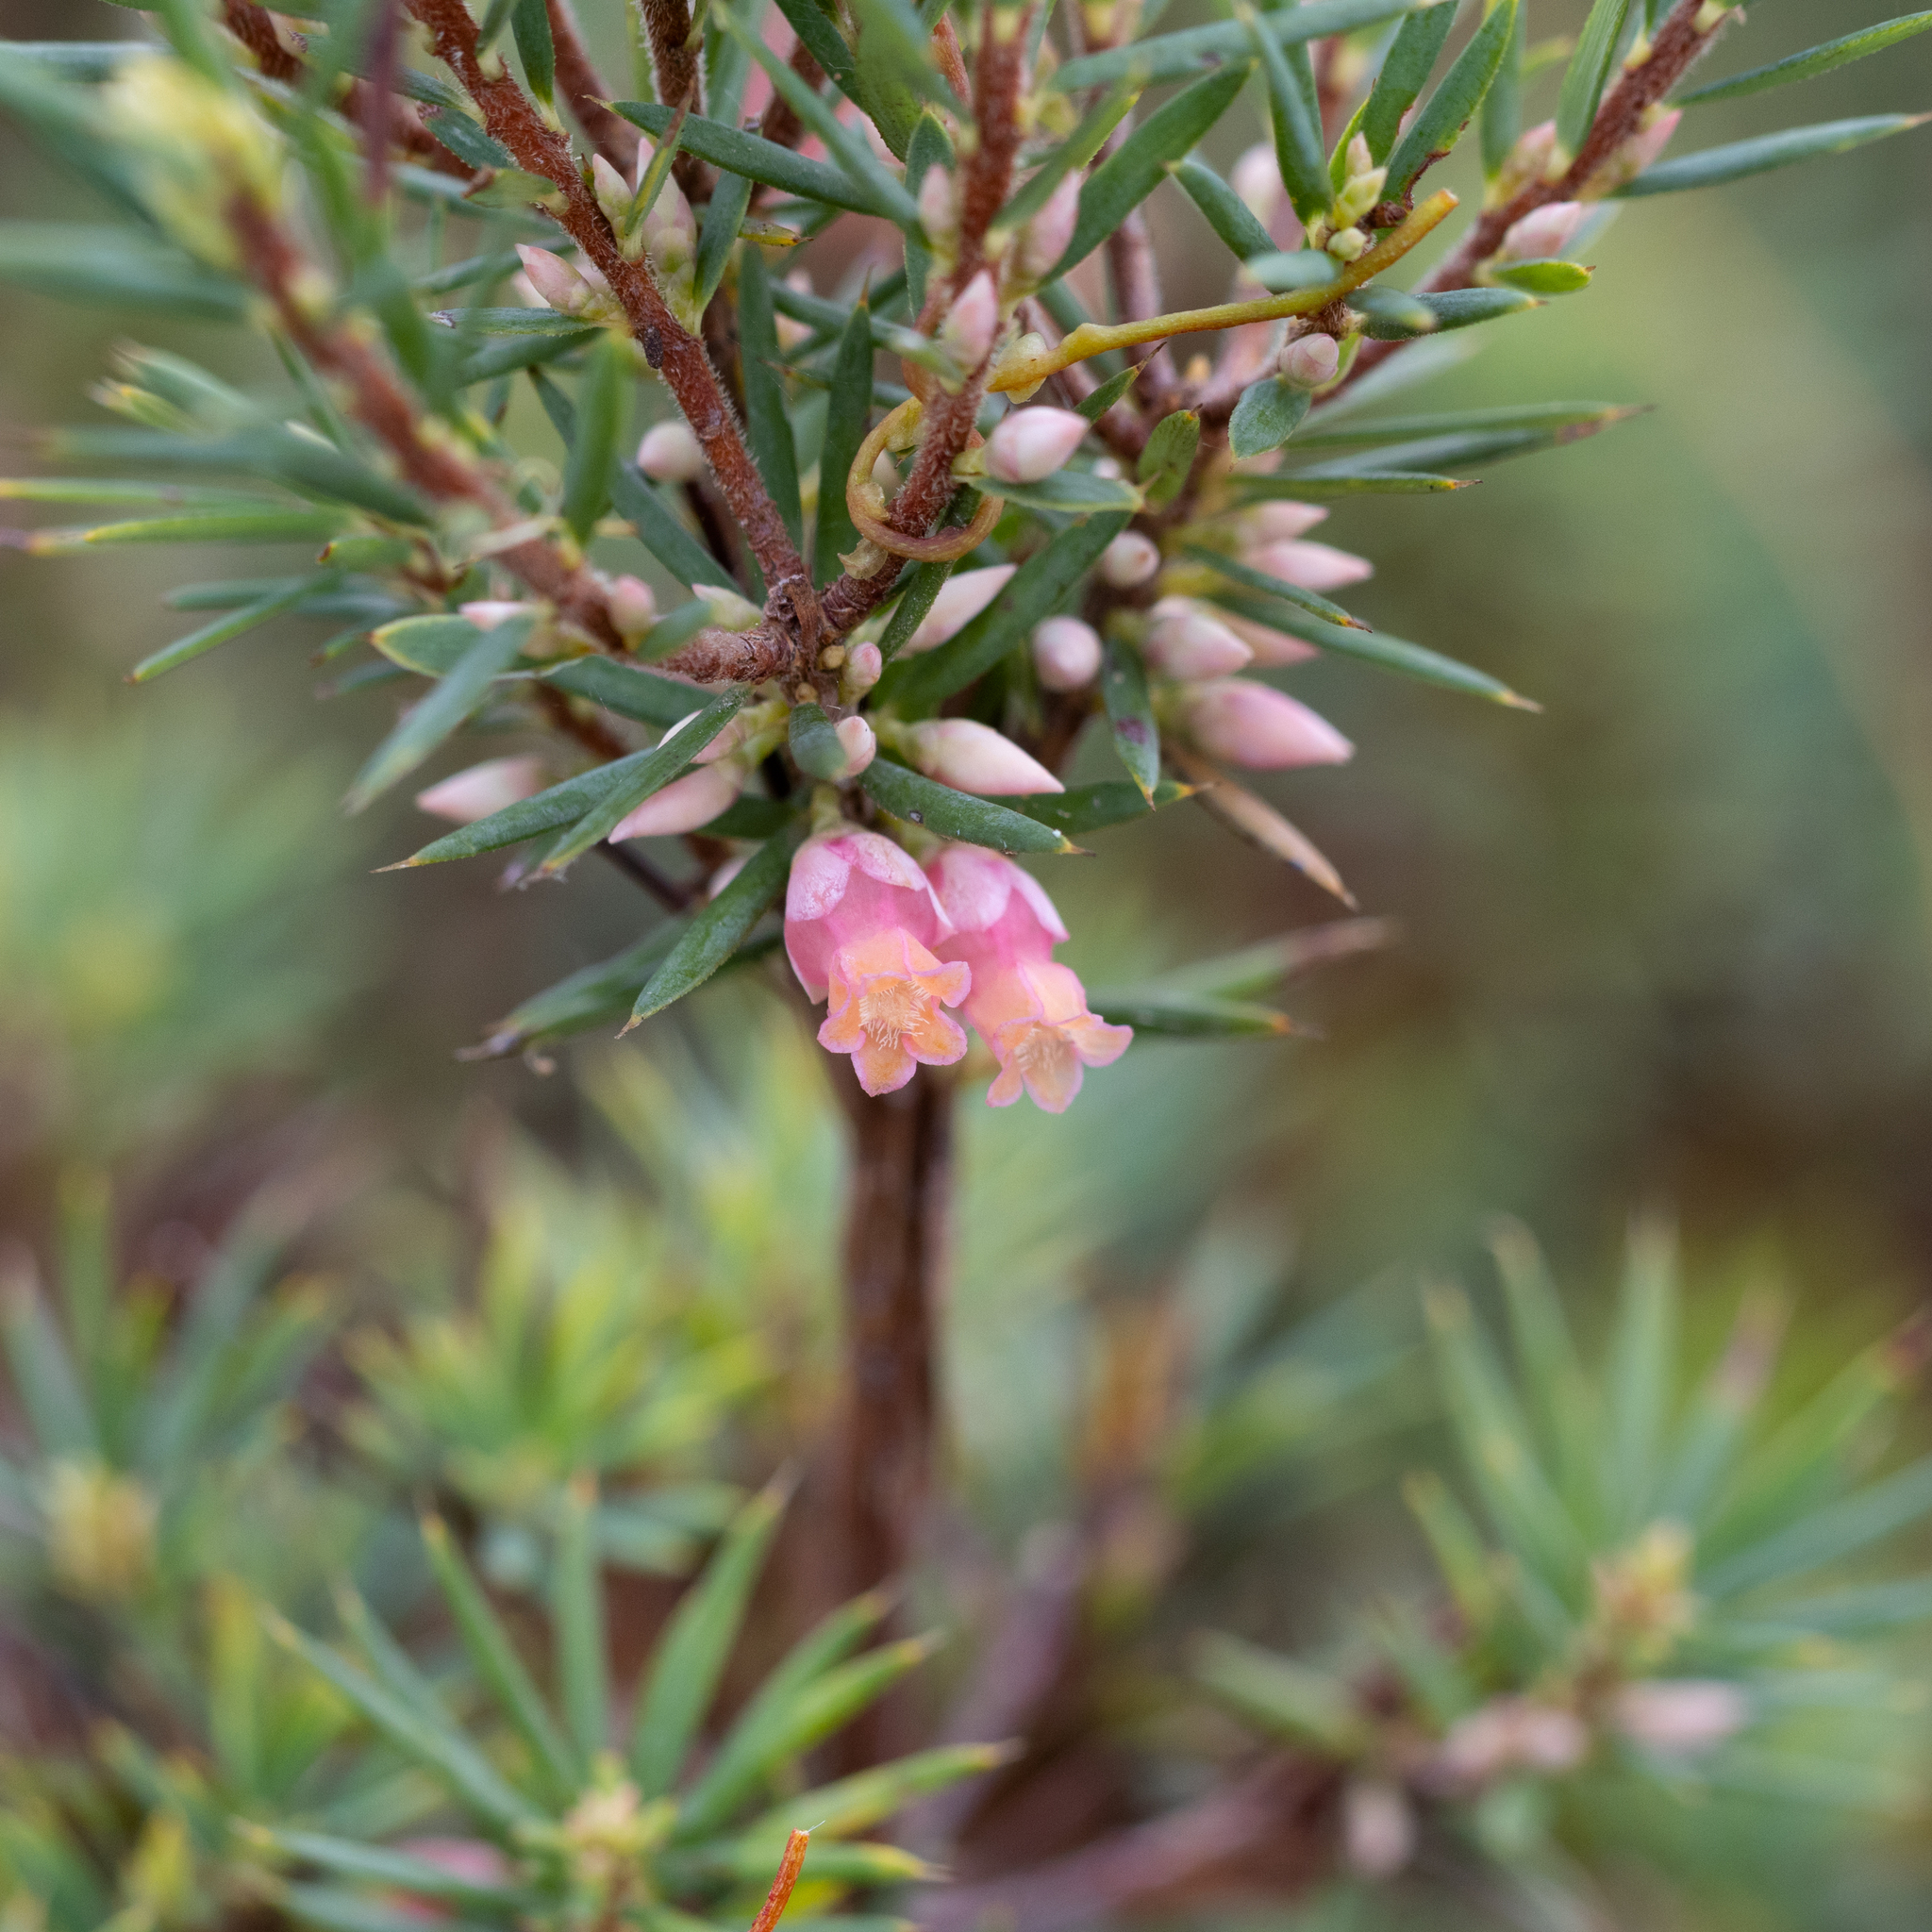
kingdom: Plantae
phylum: Tracheophyta
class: Magnoliopsida
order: Ericales
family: Ericaceae
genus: Brachyloma
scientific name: Brachyloma ericoides
